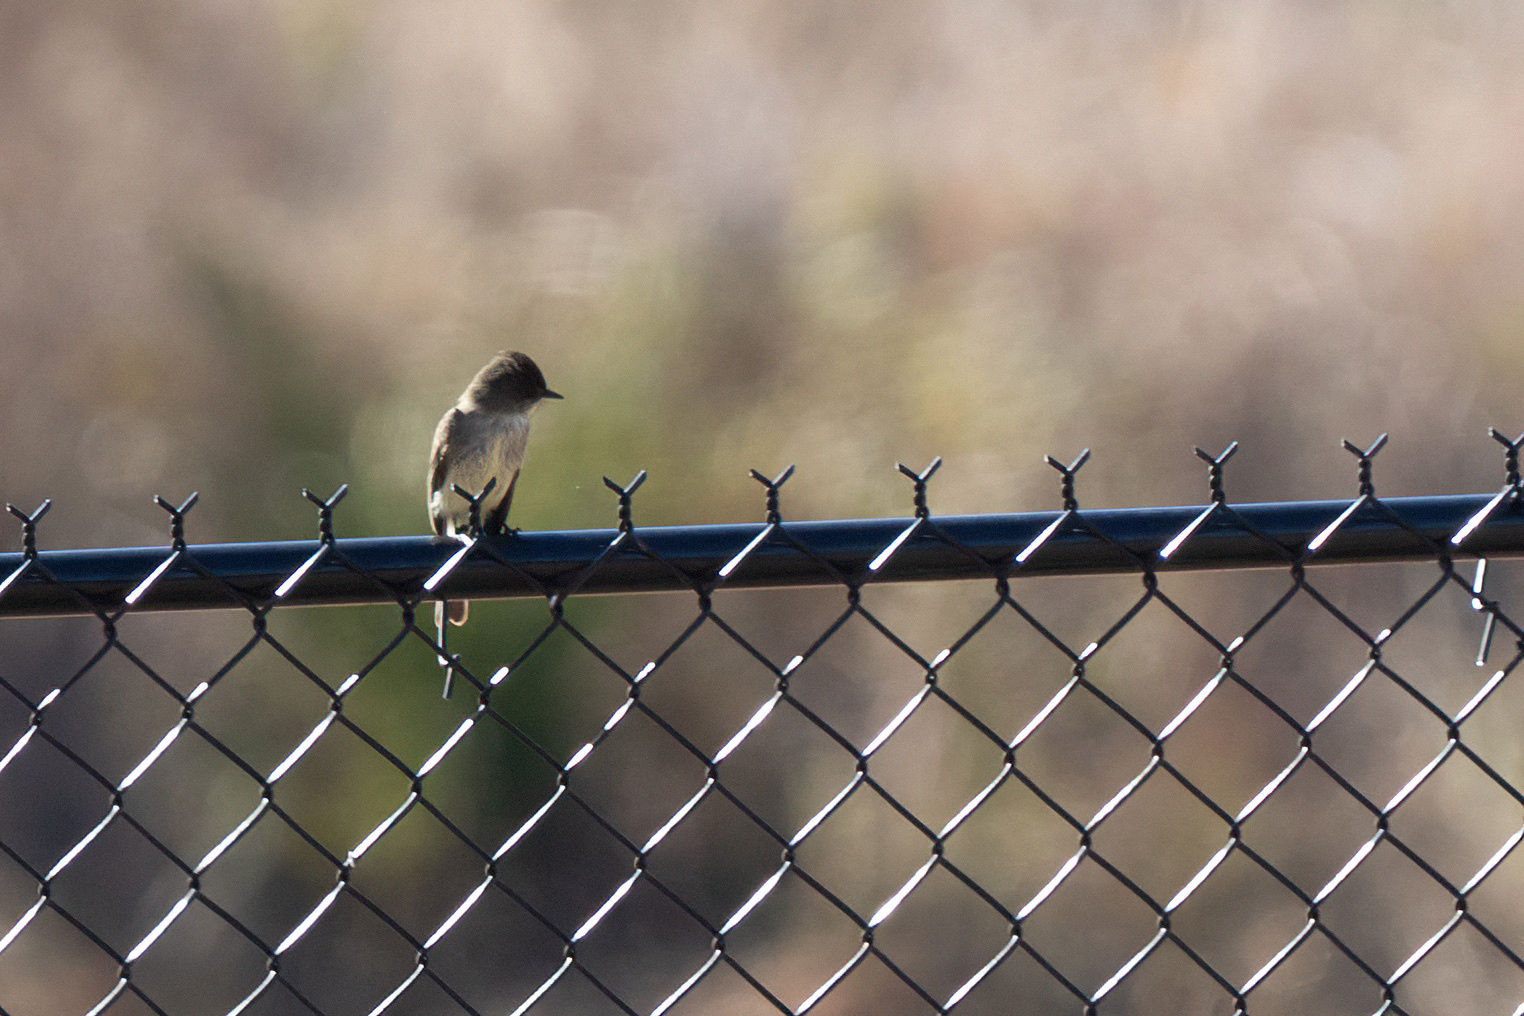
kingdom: Animalia
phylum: Chordata
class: Aves
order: Passeriformes
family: Tyrannidae
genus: Sayornis
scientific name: Sayornis phoebe
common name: Eastern phoebe
